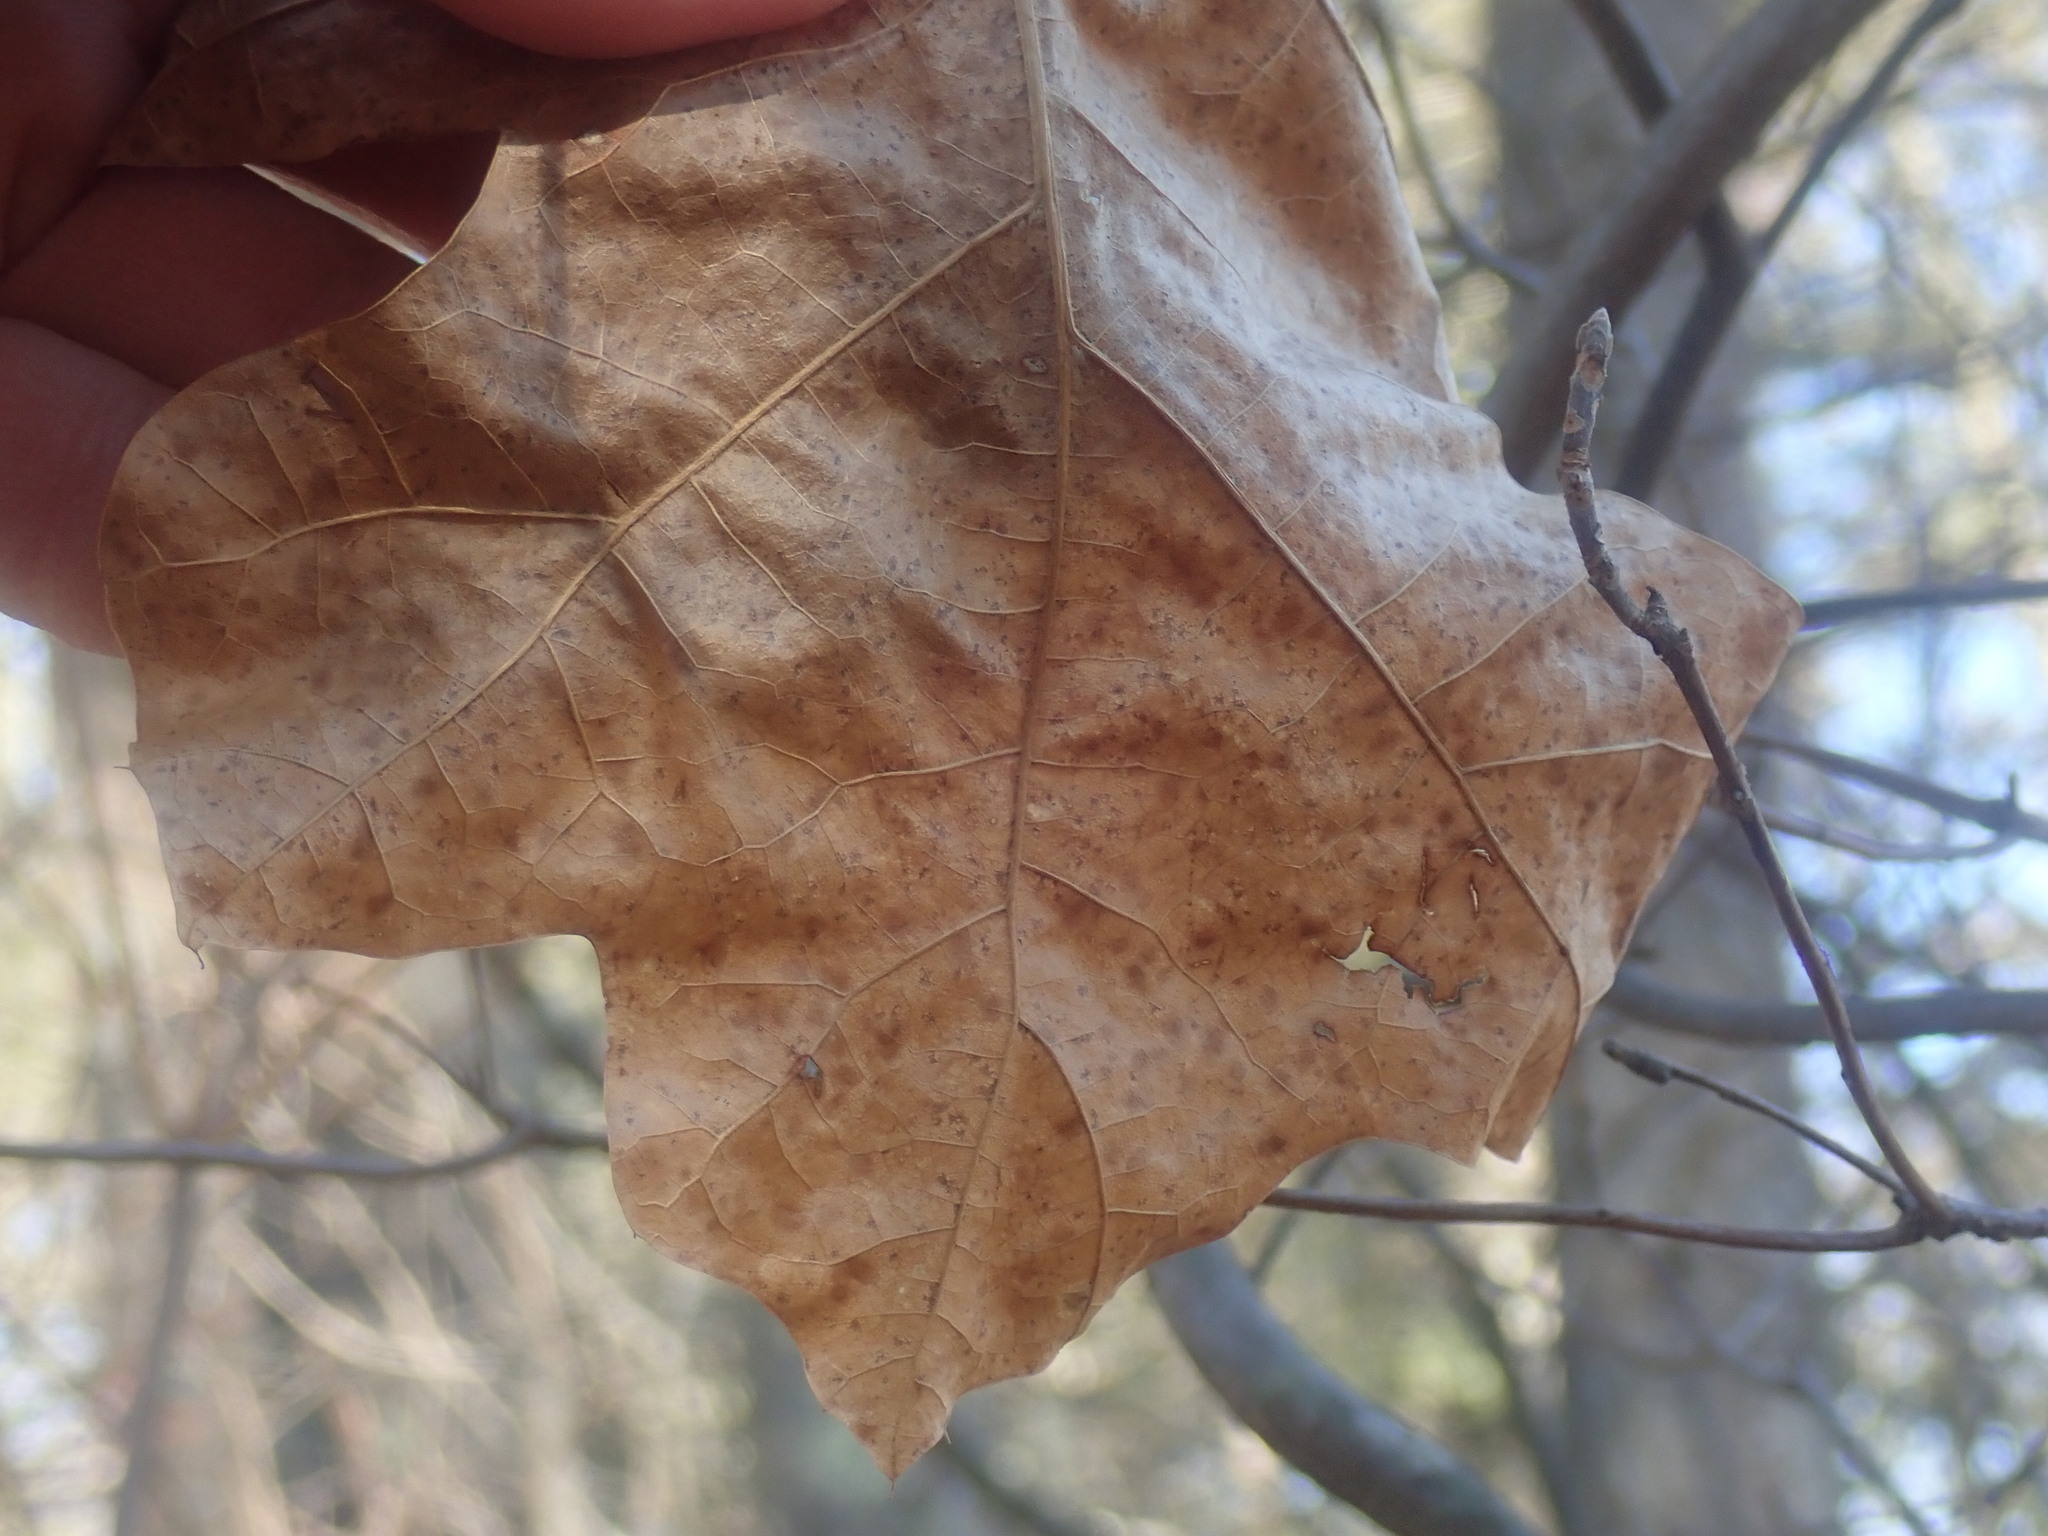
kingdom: Plantae
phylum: Tracheophyta
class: Magnoliopsida
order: Fagales
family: Fagaceae
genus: Quercus
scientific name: Quercus velutina
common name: Black oak
